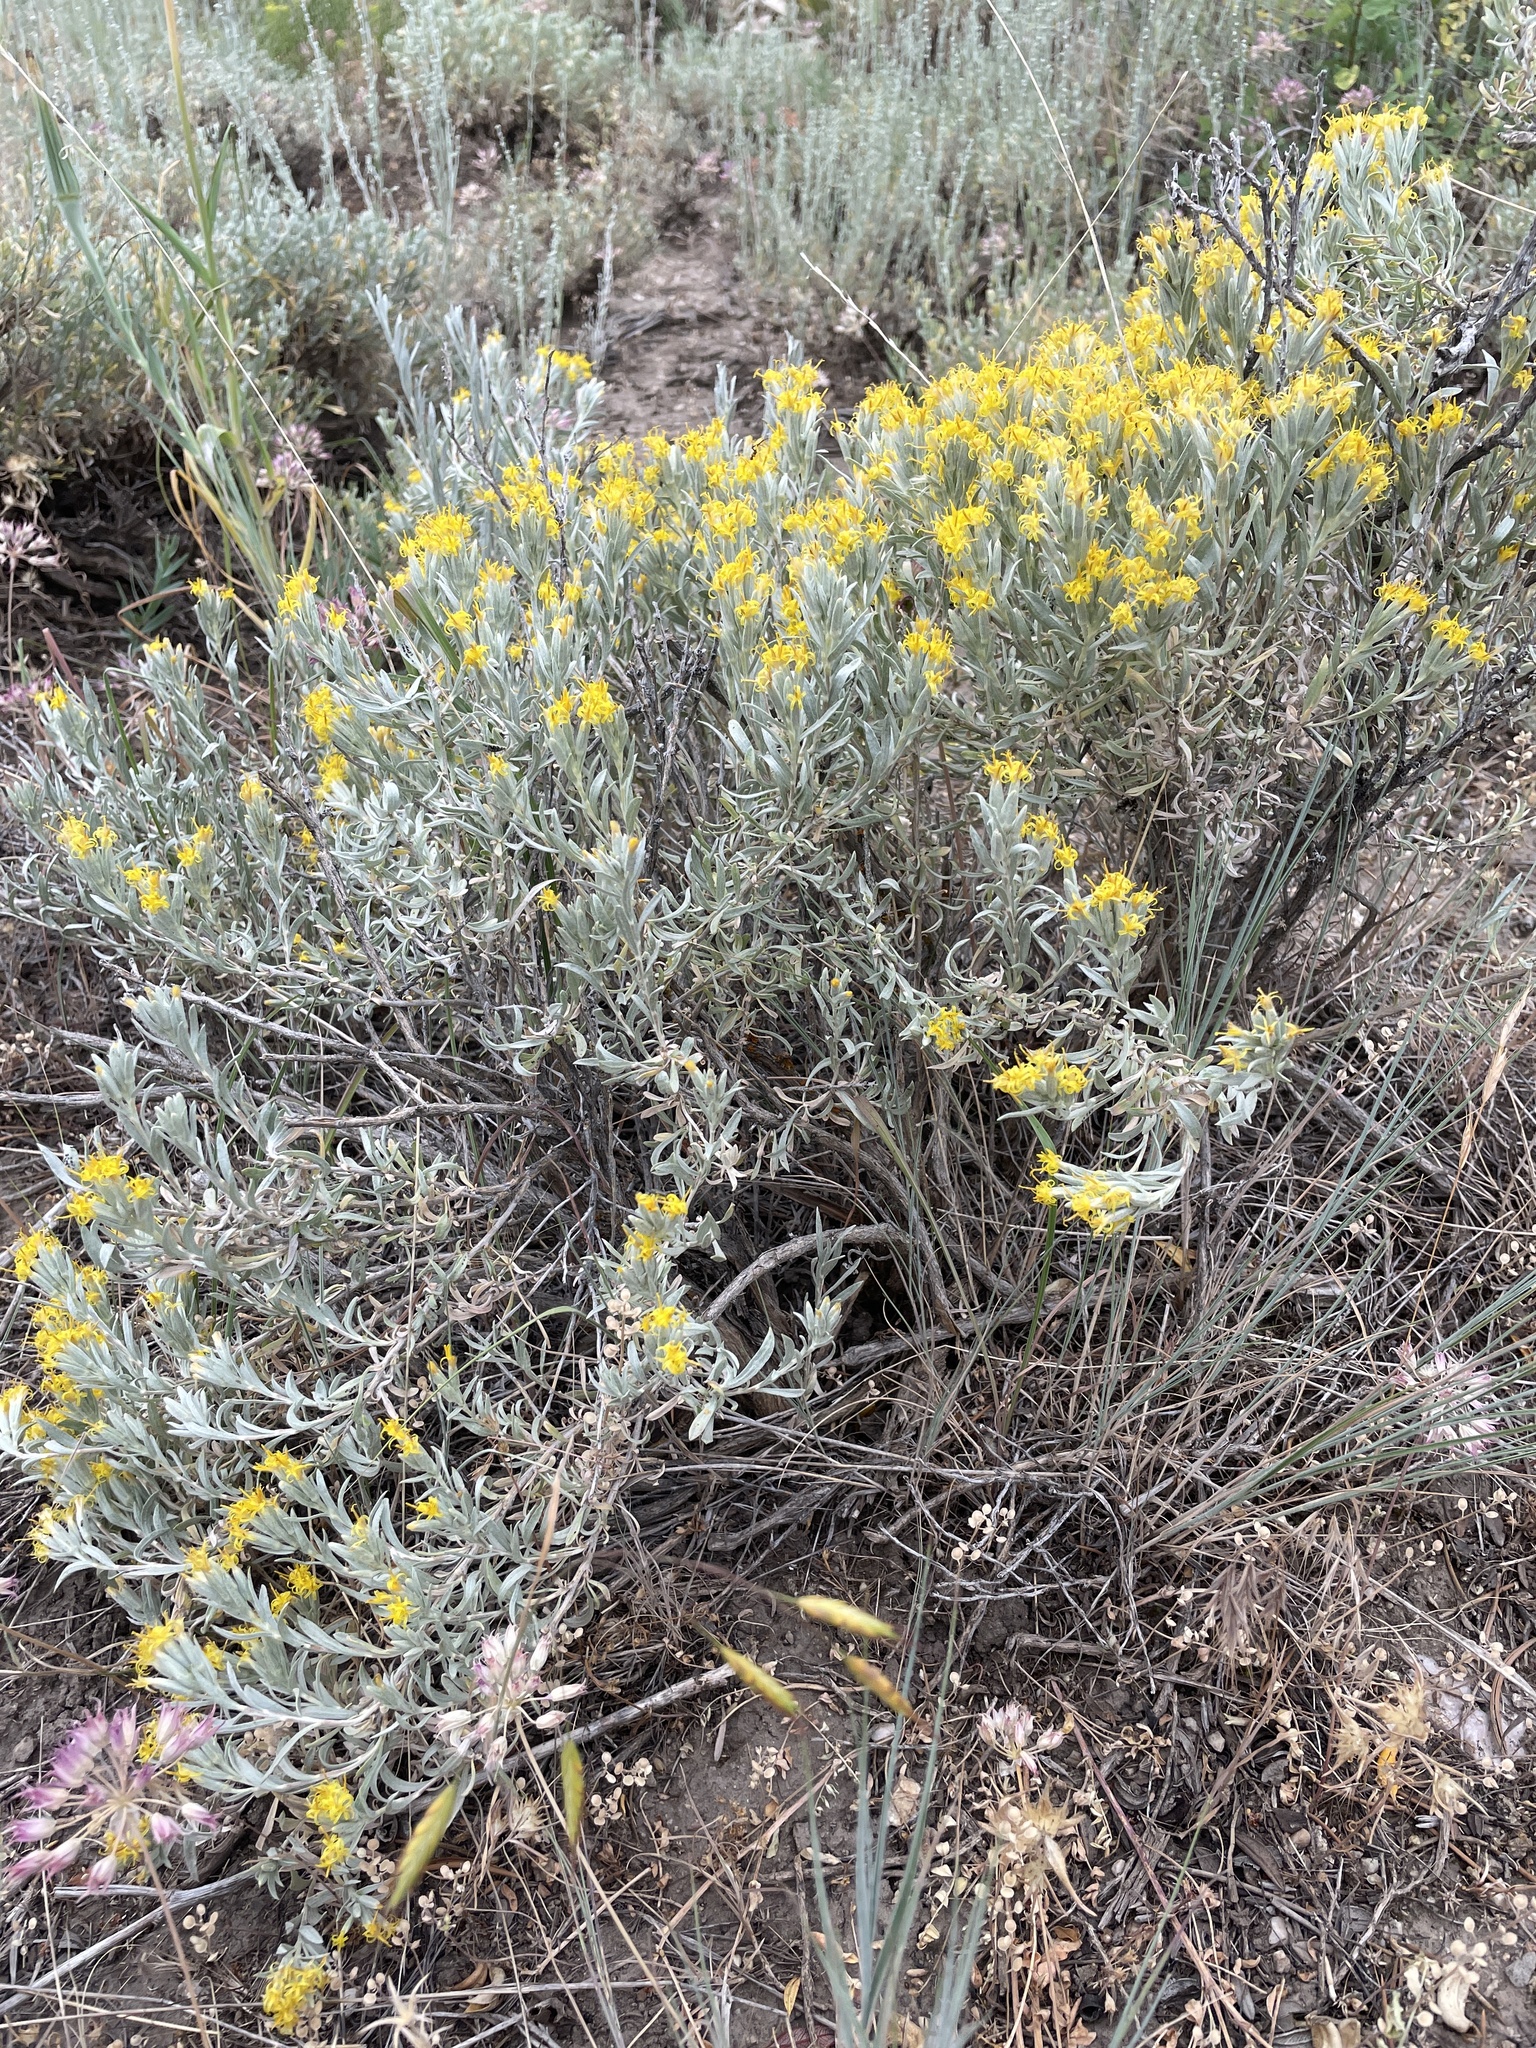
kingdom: Plantae
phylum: Tracheophyta
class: Magnoliopsida
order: Asterales
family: Asteraceae
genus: Tetradymia
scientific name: Tetradymia canescens
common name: Spineless horsebrush
